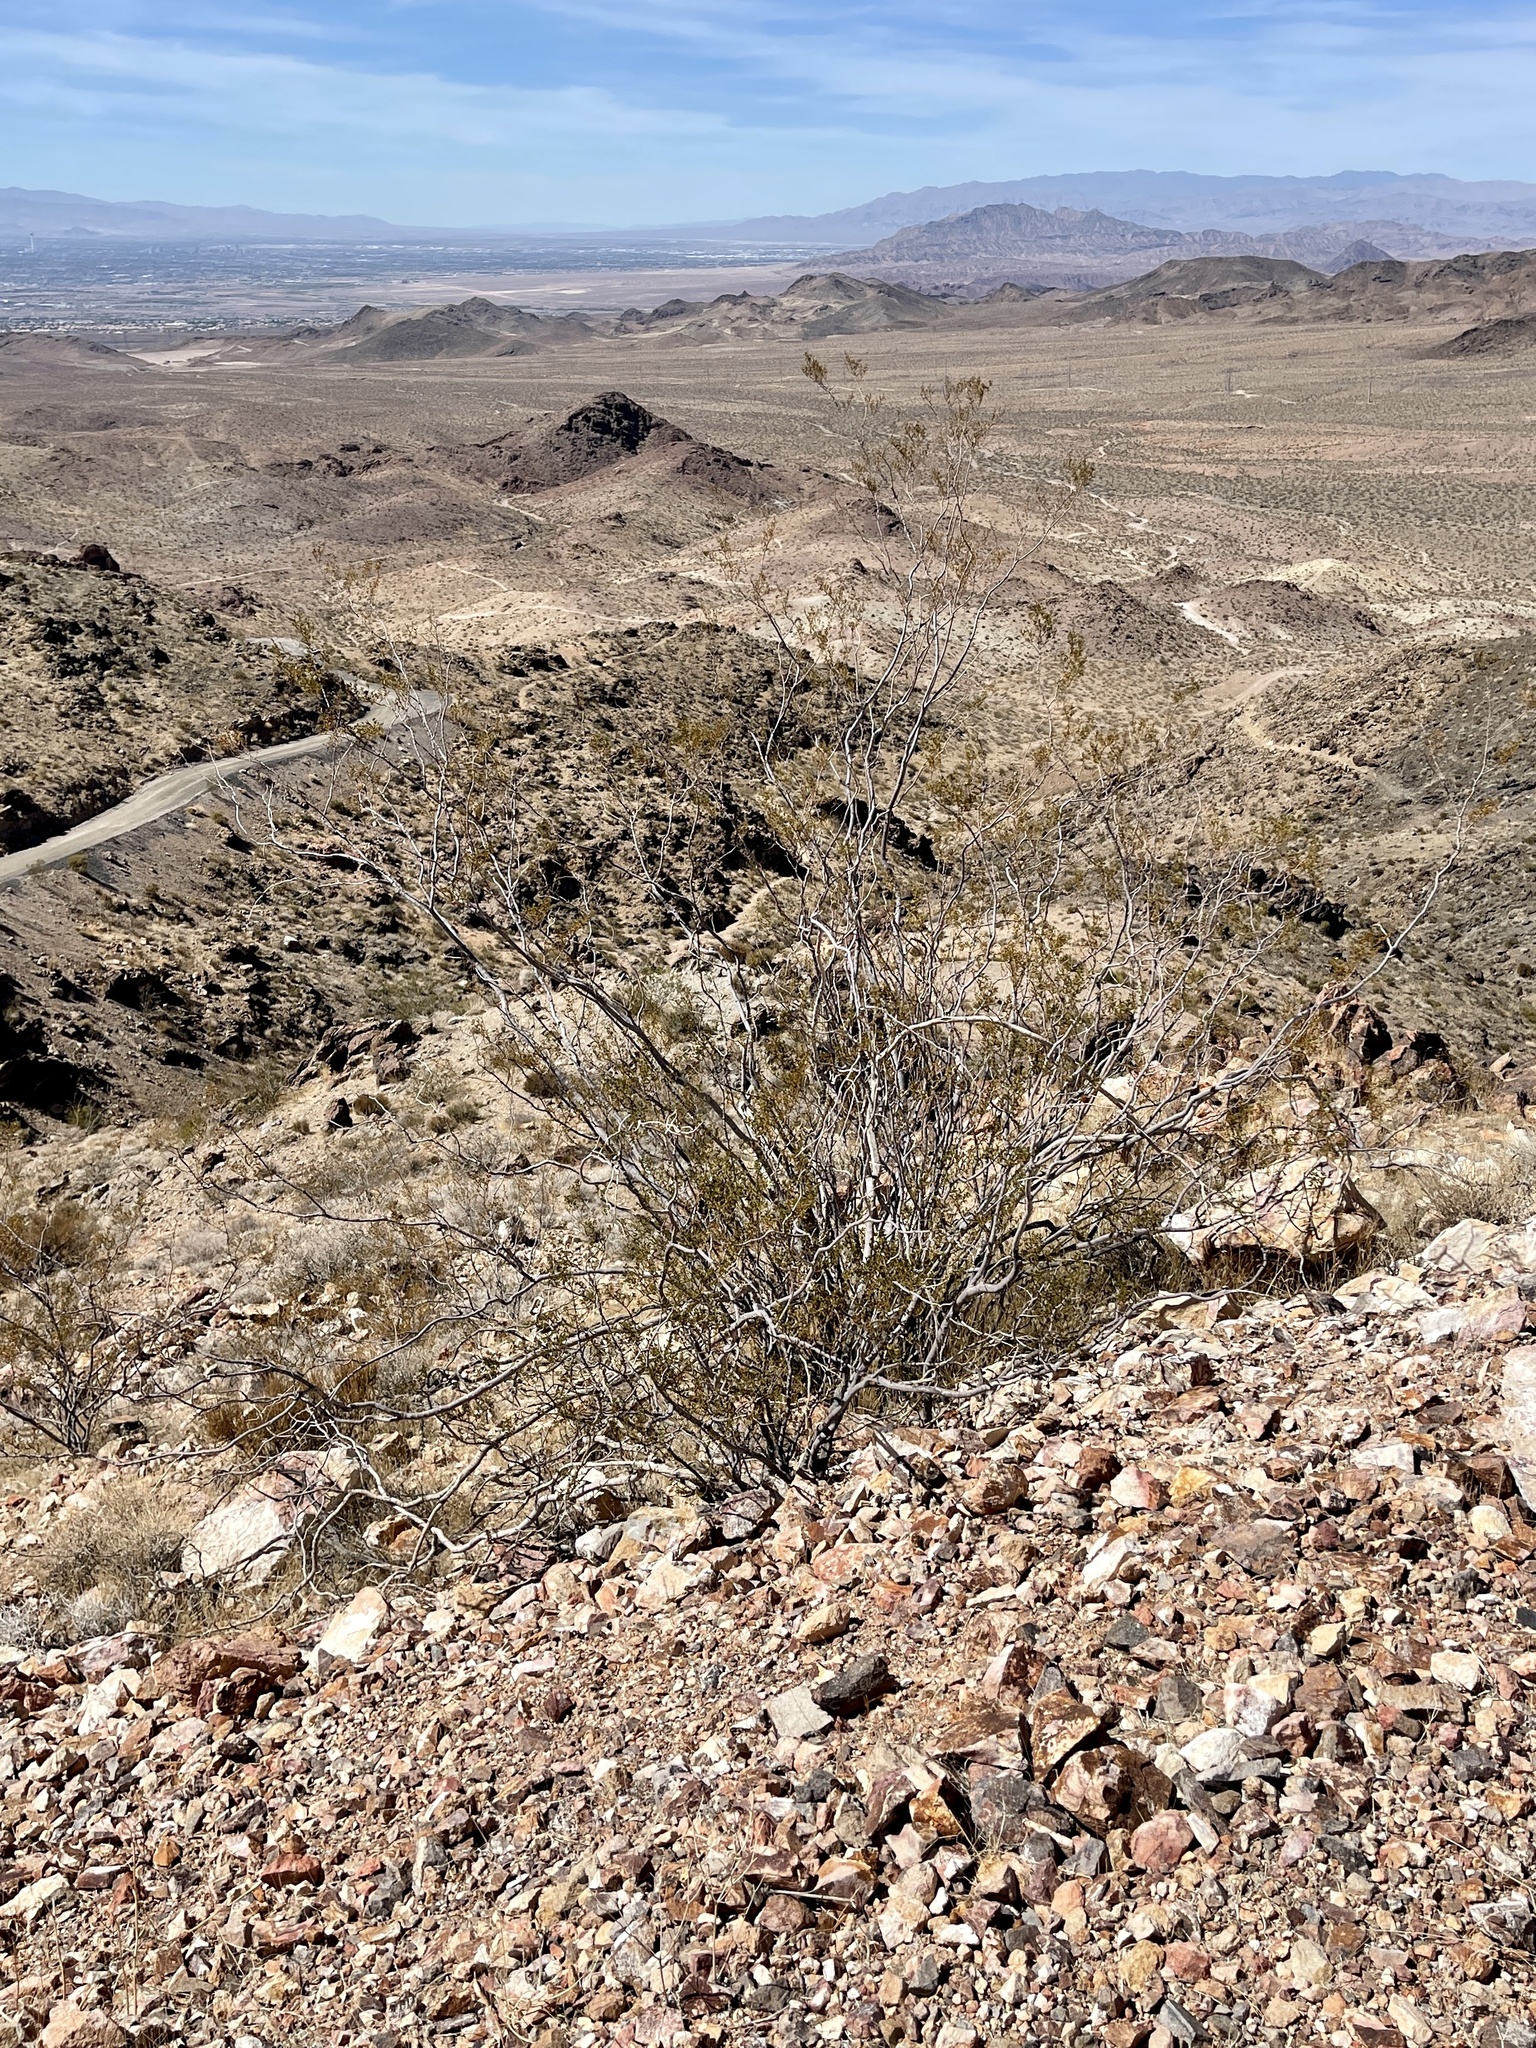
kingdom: Plantae
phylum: Tracheophyta
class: Magnoliopsida
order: Zygophyllales
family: Zygophyllaceae
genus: Larrea
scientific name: Larrea tridentata
